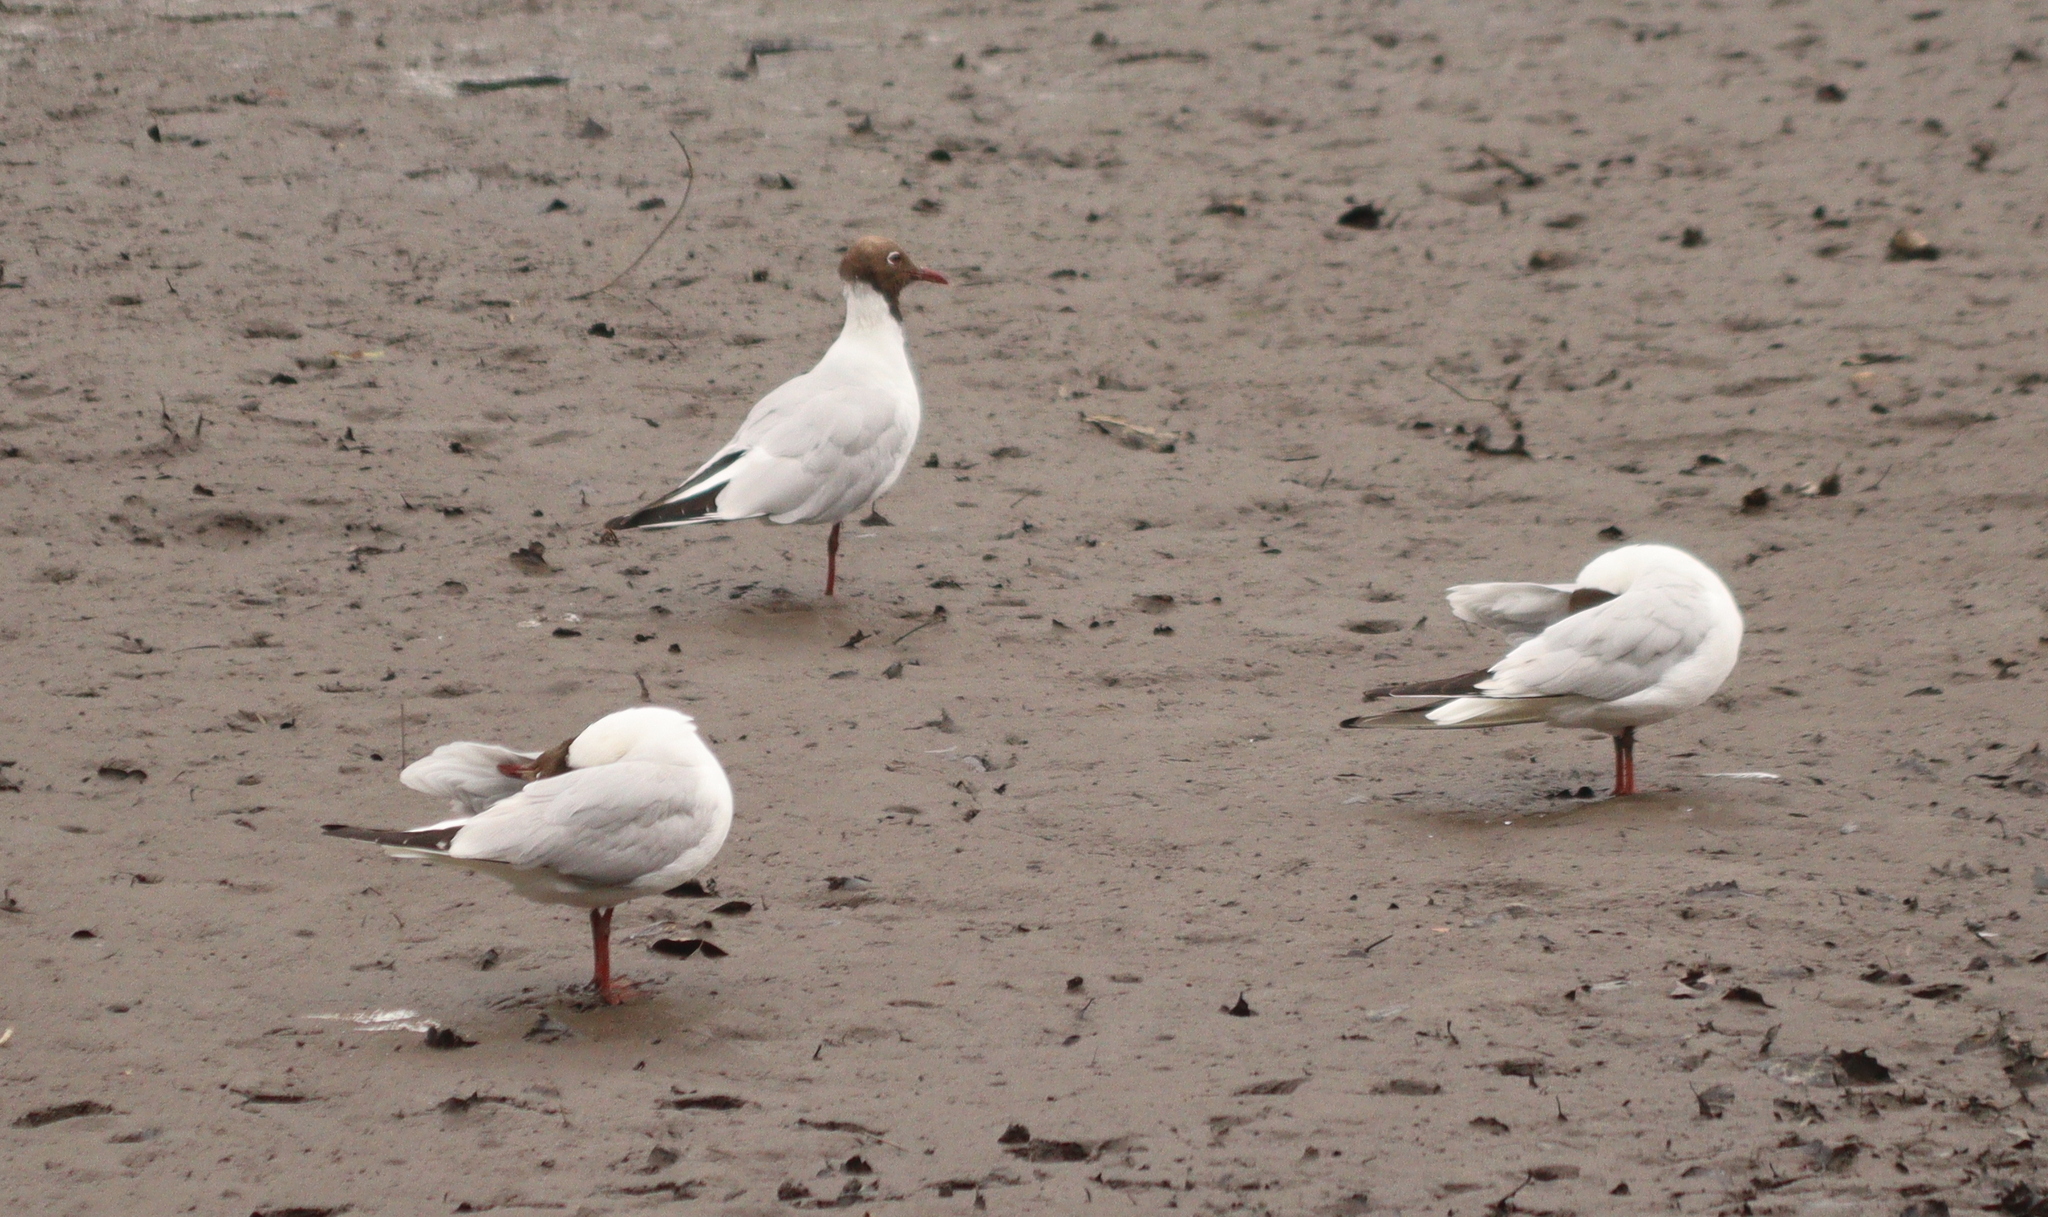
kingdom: Animalia
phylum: Chordata
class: Aves
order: Charadriiformes
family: Laridae
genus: Chroicocephalus
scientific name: Chroicocephalus ridibundus
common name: Black-headed gull
